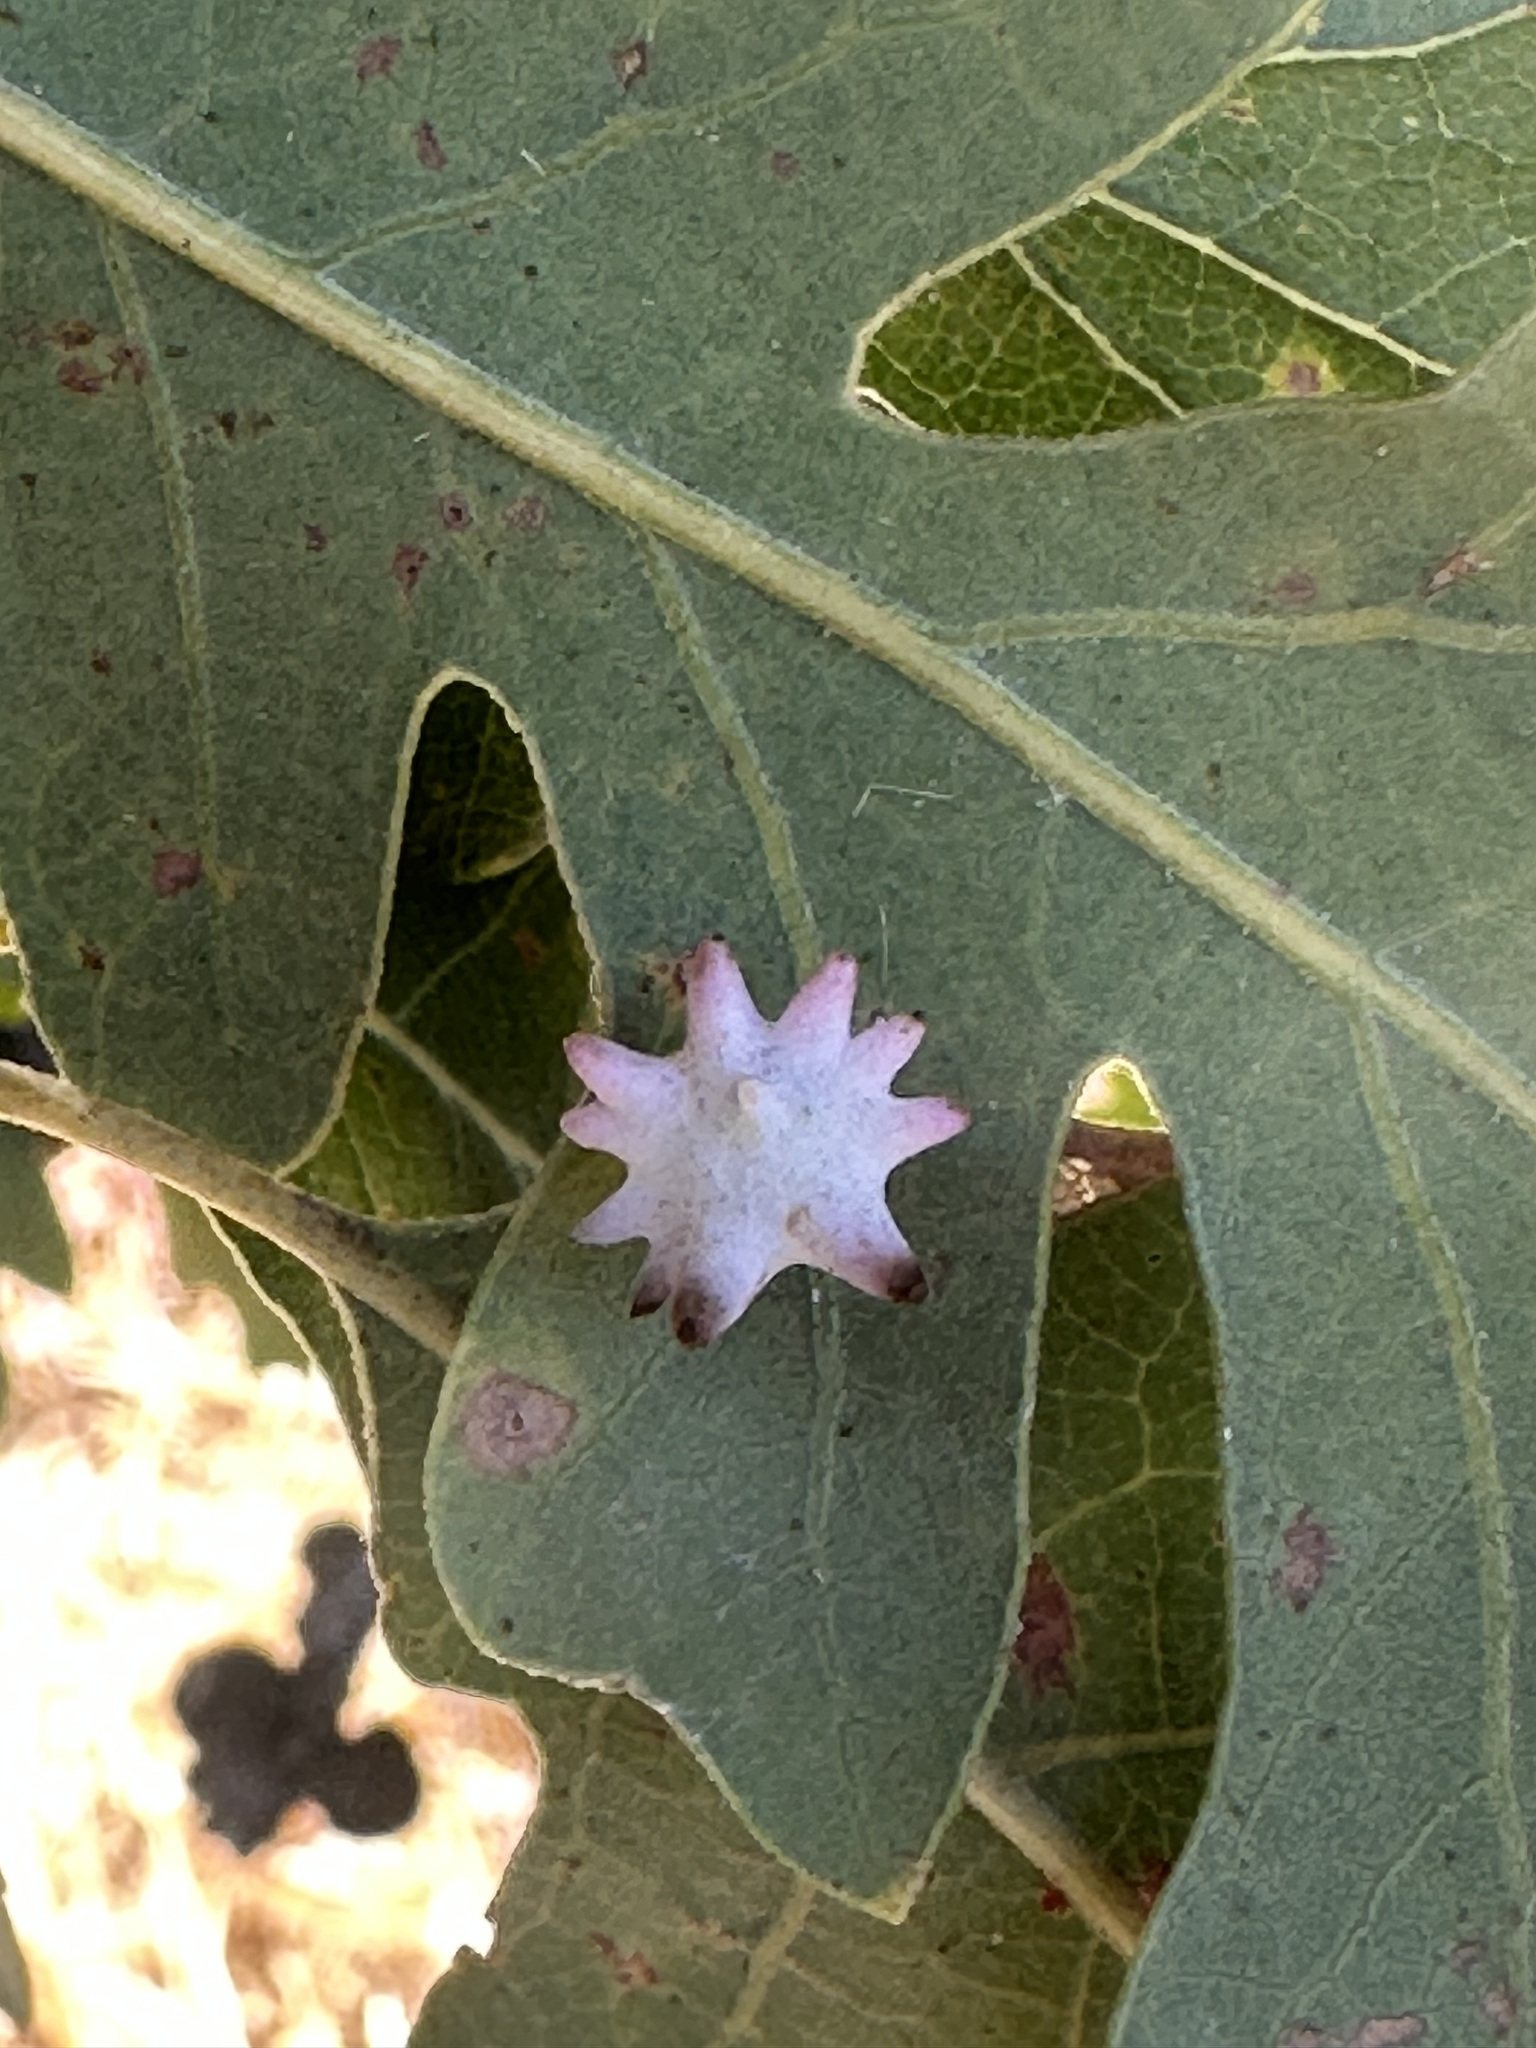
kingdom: Animalia
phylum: Arthropoda
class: Insecta
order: Hymenoptera
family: Cynipidae
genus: Cynips
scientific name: Cynips douglasi
